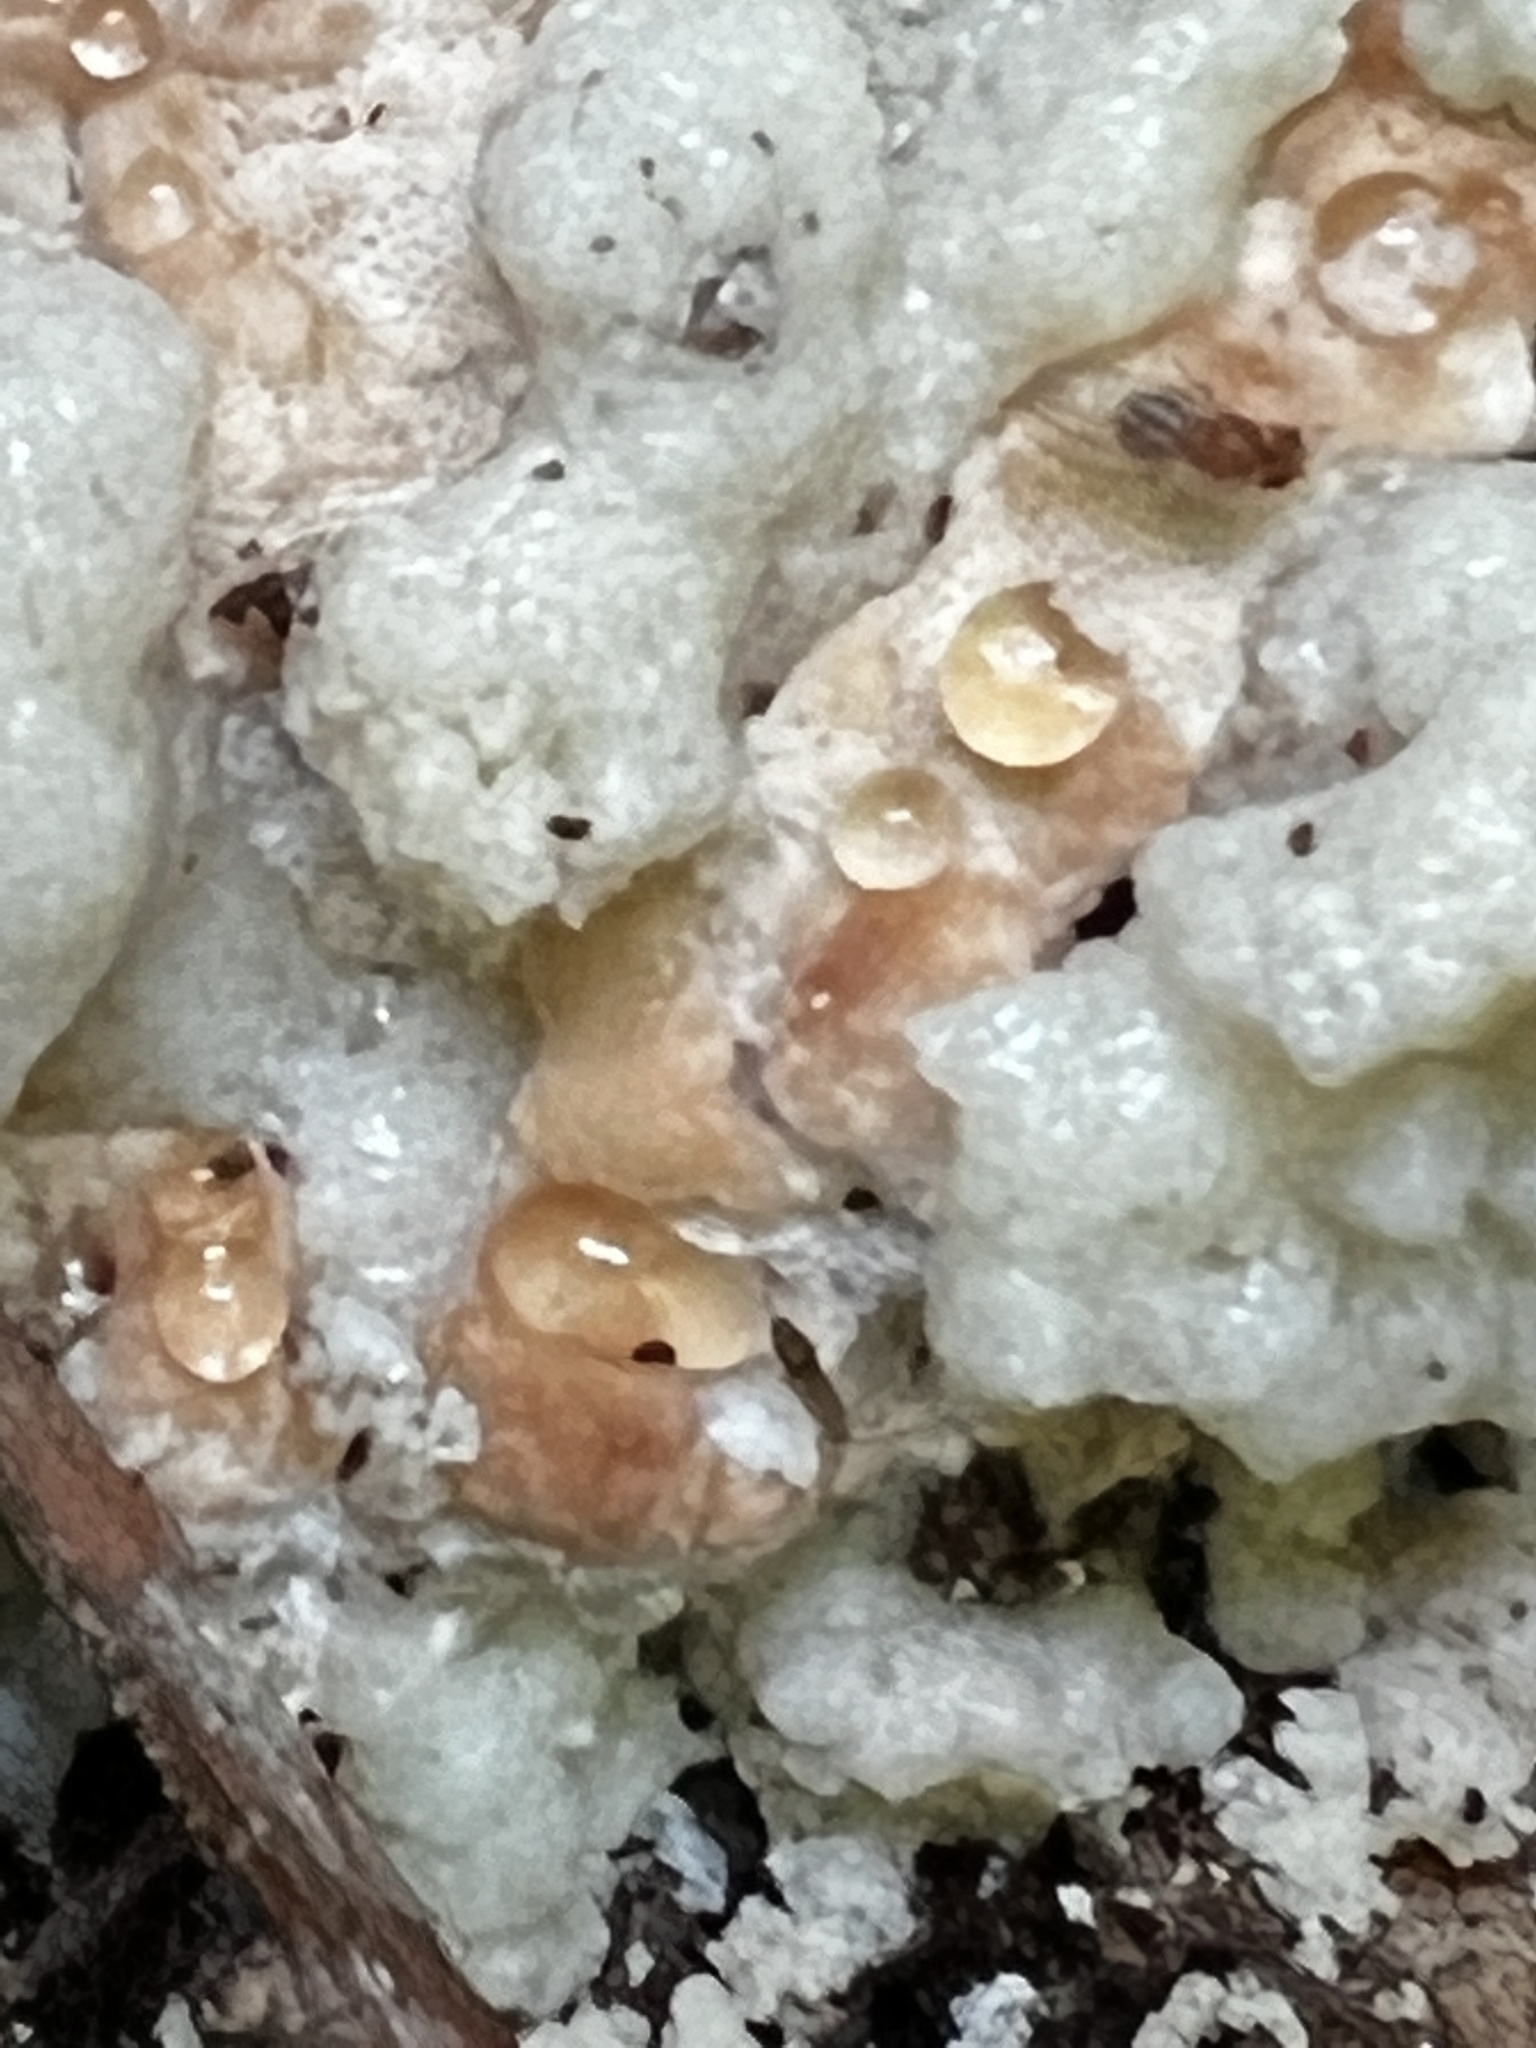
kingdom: Fungi
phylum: Basidiomycota
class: Agaricomycetes
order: Polyporales
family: Fomitopsidaceae
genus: Niveoporofomes
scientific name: Niveoporofomes spraguei
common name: Green cheese polypore
